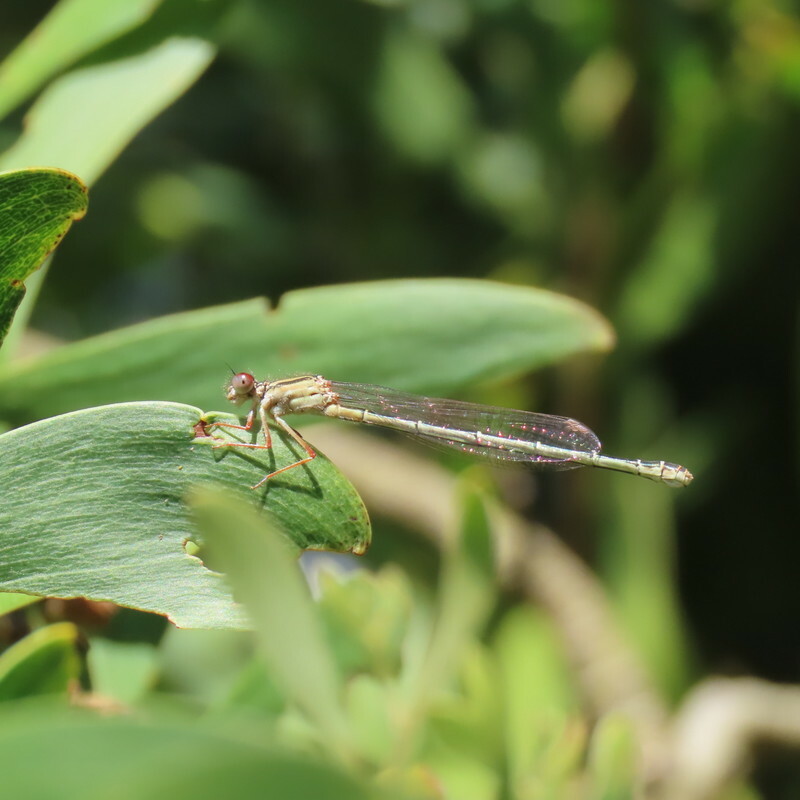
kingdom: Animalia
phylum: Arthropoda
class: Insecta
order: Odonata
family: Coenagrionidae
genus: Xanthagrion
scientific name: Xanthagrion erythroneurum
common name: Red and blue damsel
